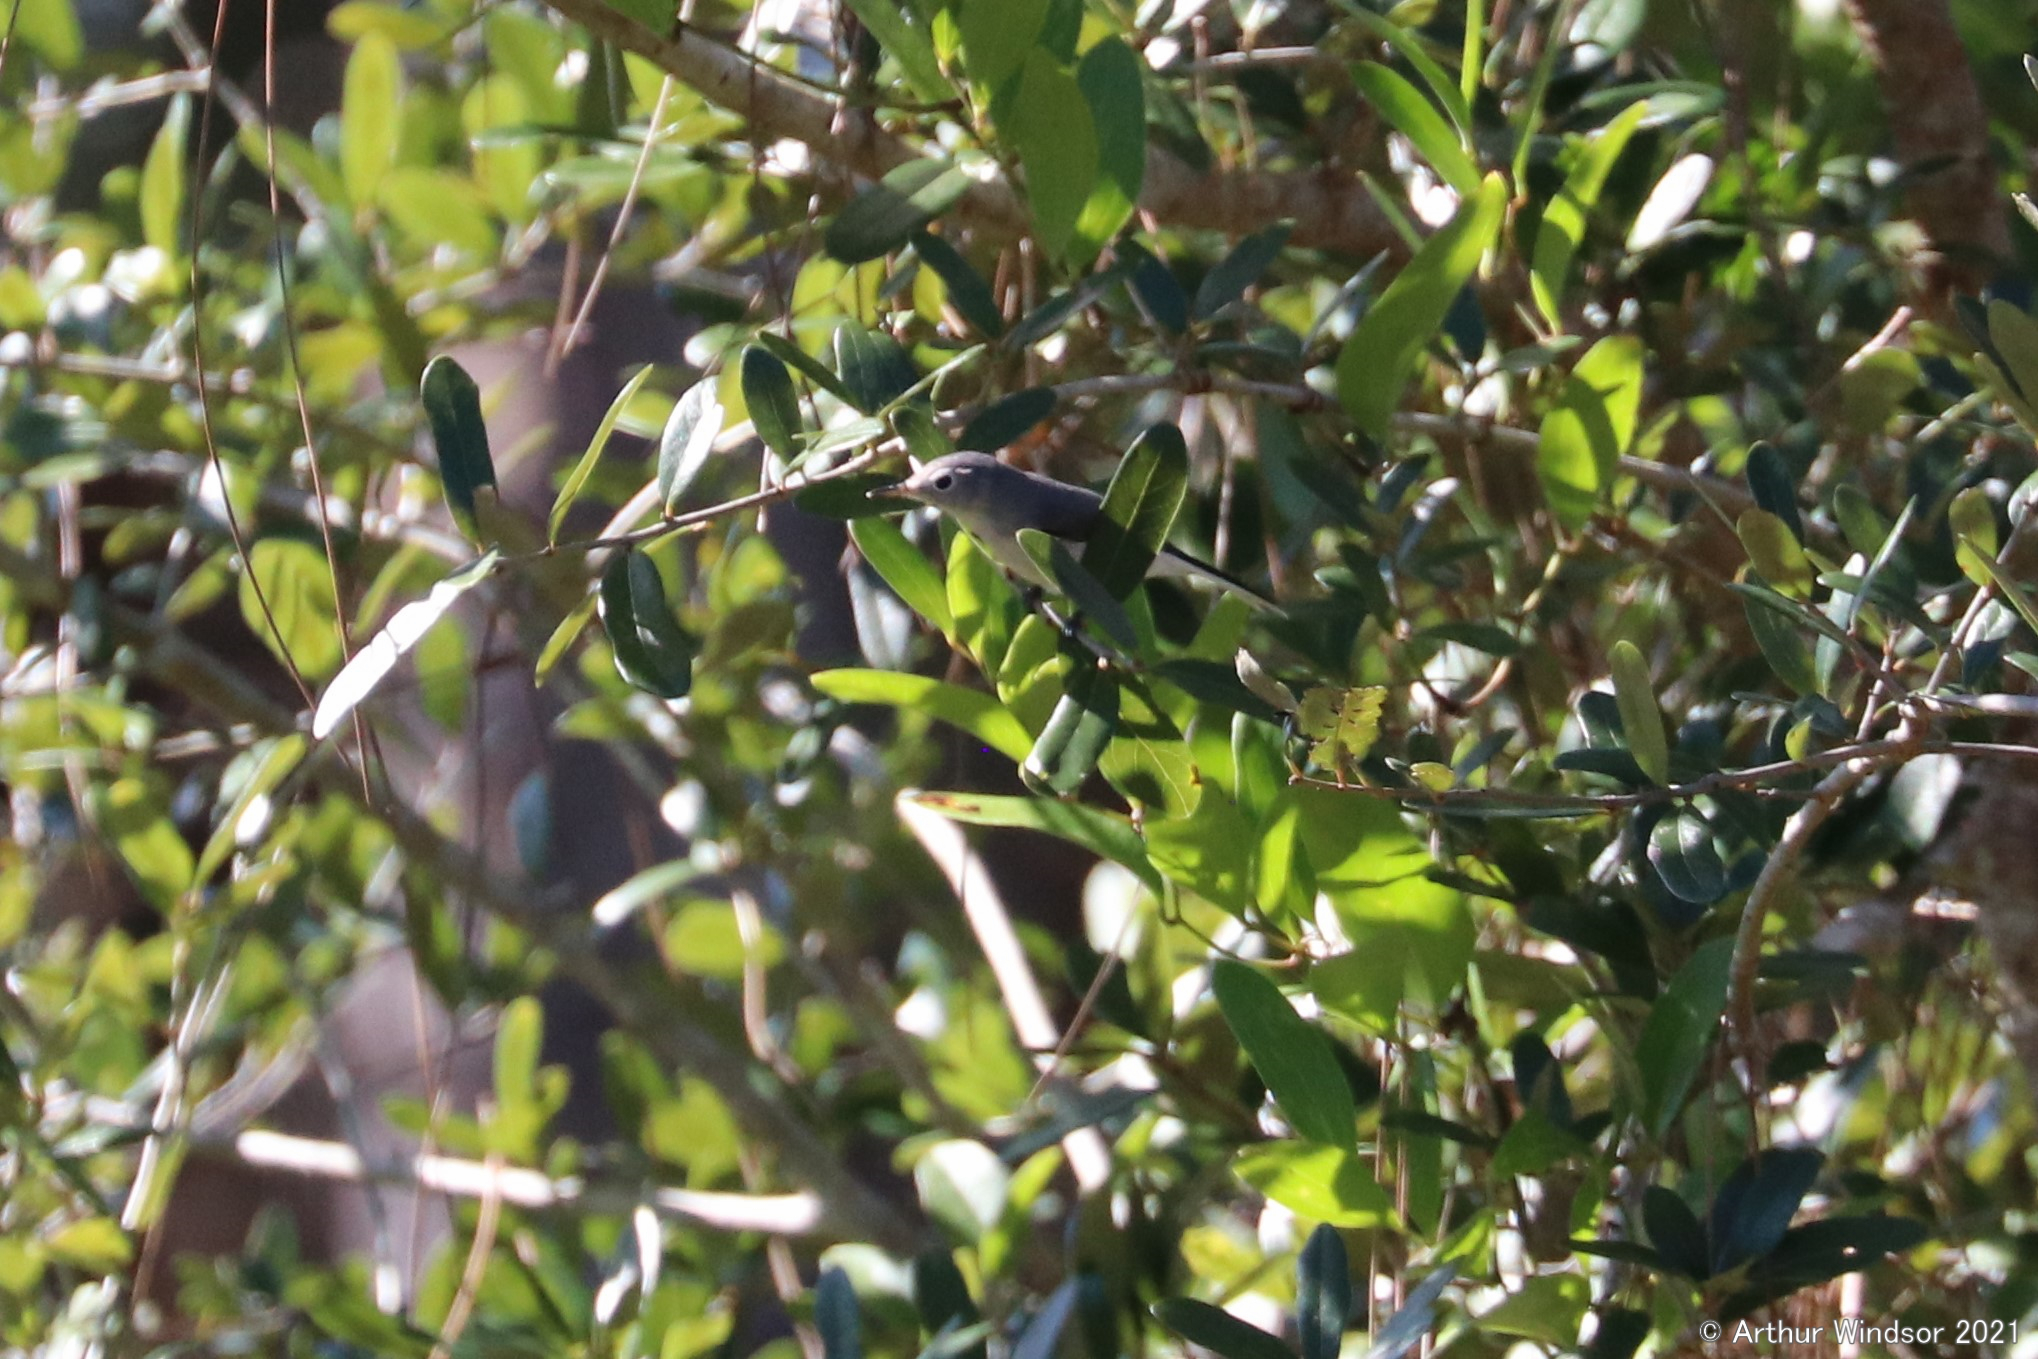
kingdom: Animalia
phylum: Chordata
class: Aves
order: Passeriformes
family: Polioptilidae
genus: Polioptila
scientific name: Polioptila caerulea
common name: Blue-gray gnatcatcher
